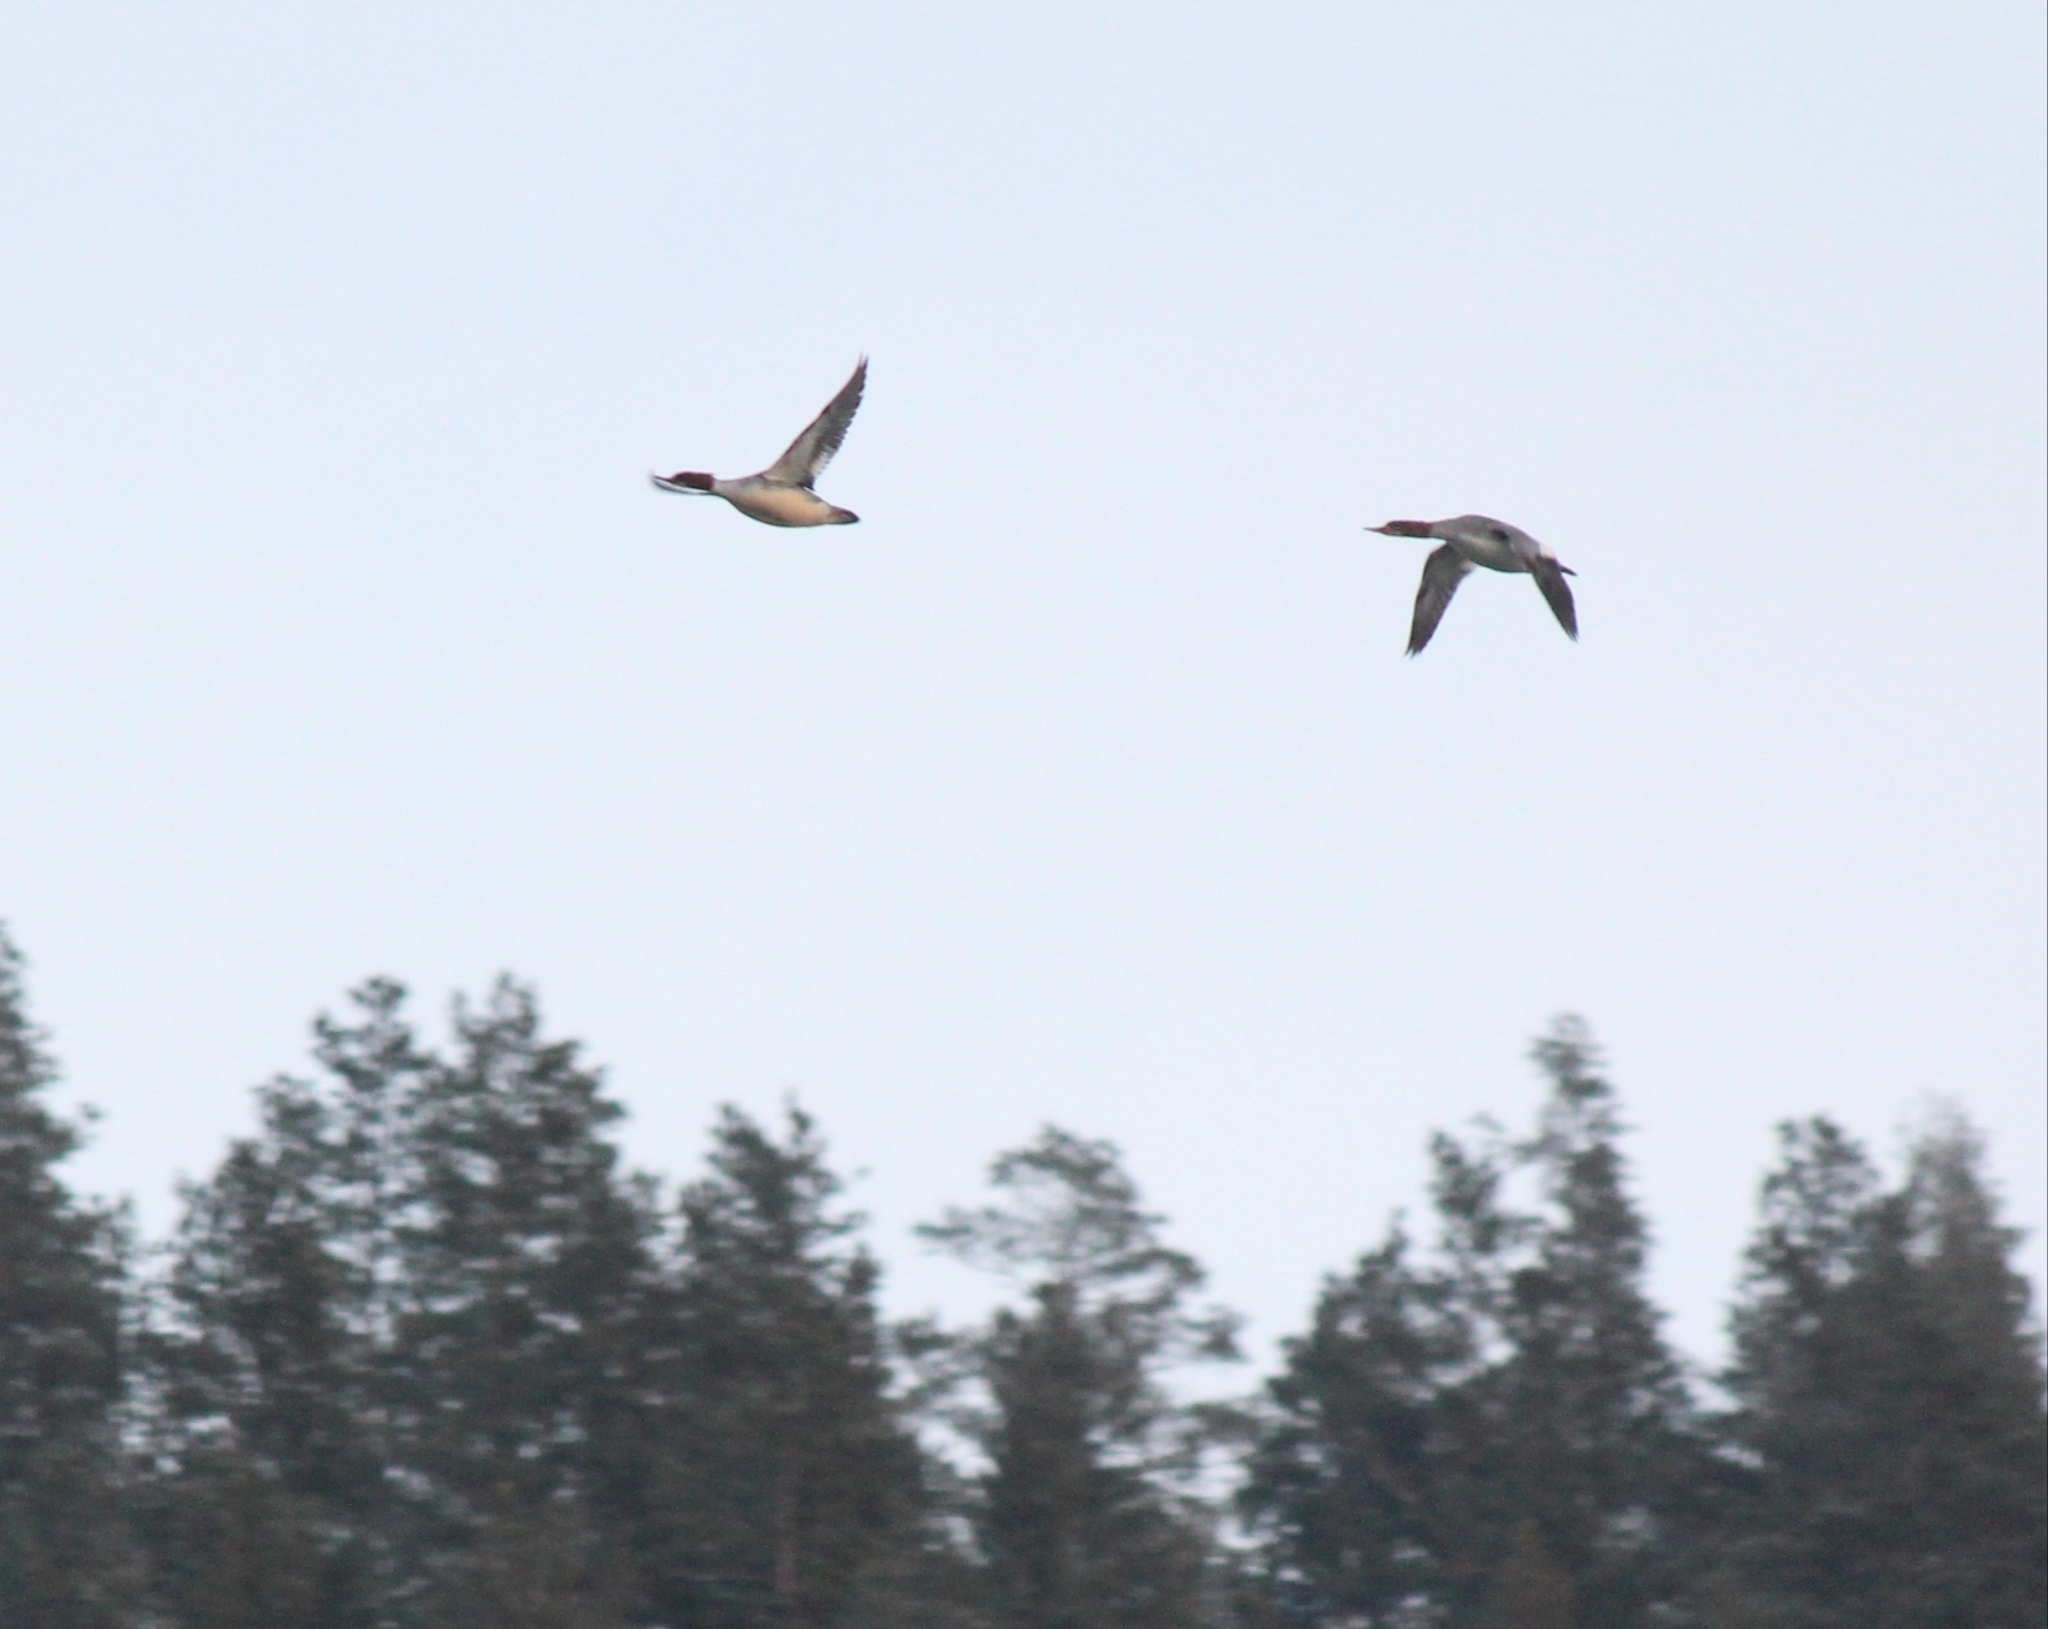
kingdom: Animalia
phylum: Chordata
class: Aves
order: Anseriformes
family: Anatidae
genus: Mergus
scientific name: Mergus merganser
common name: Common merganser
